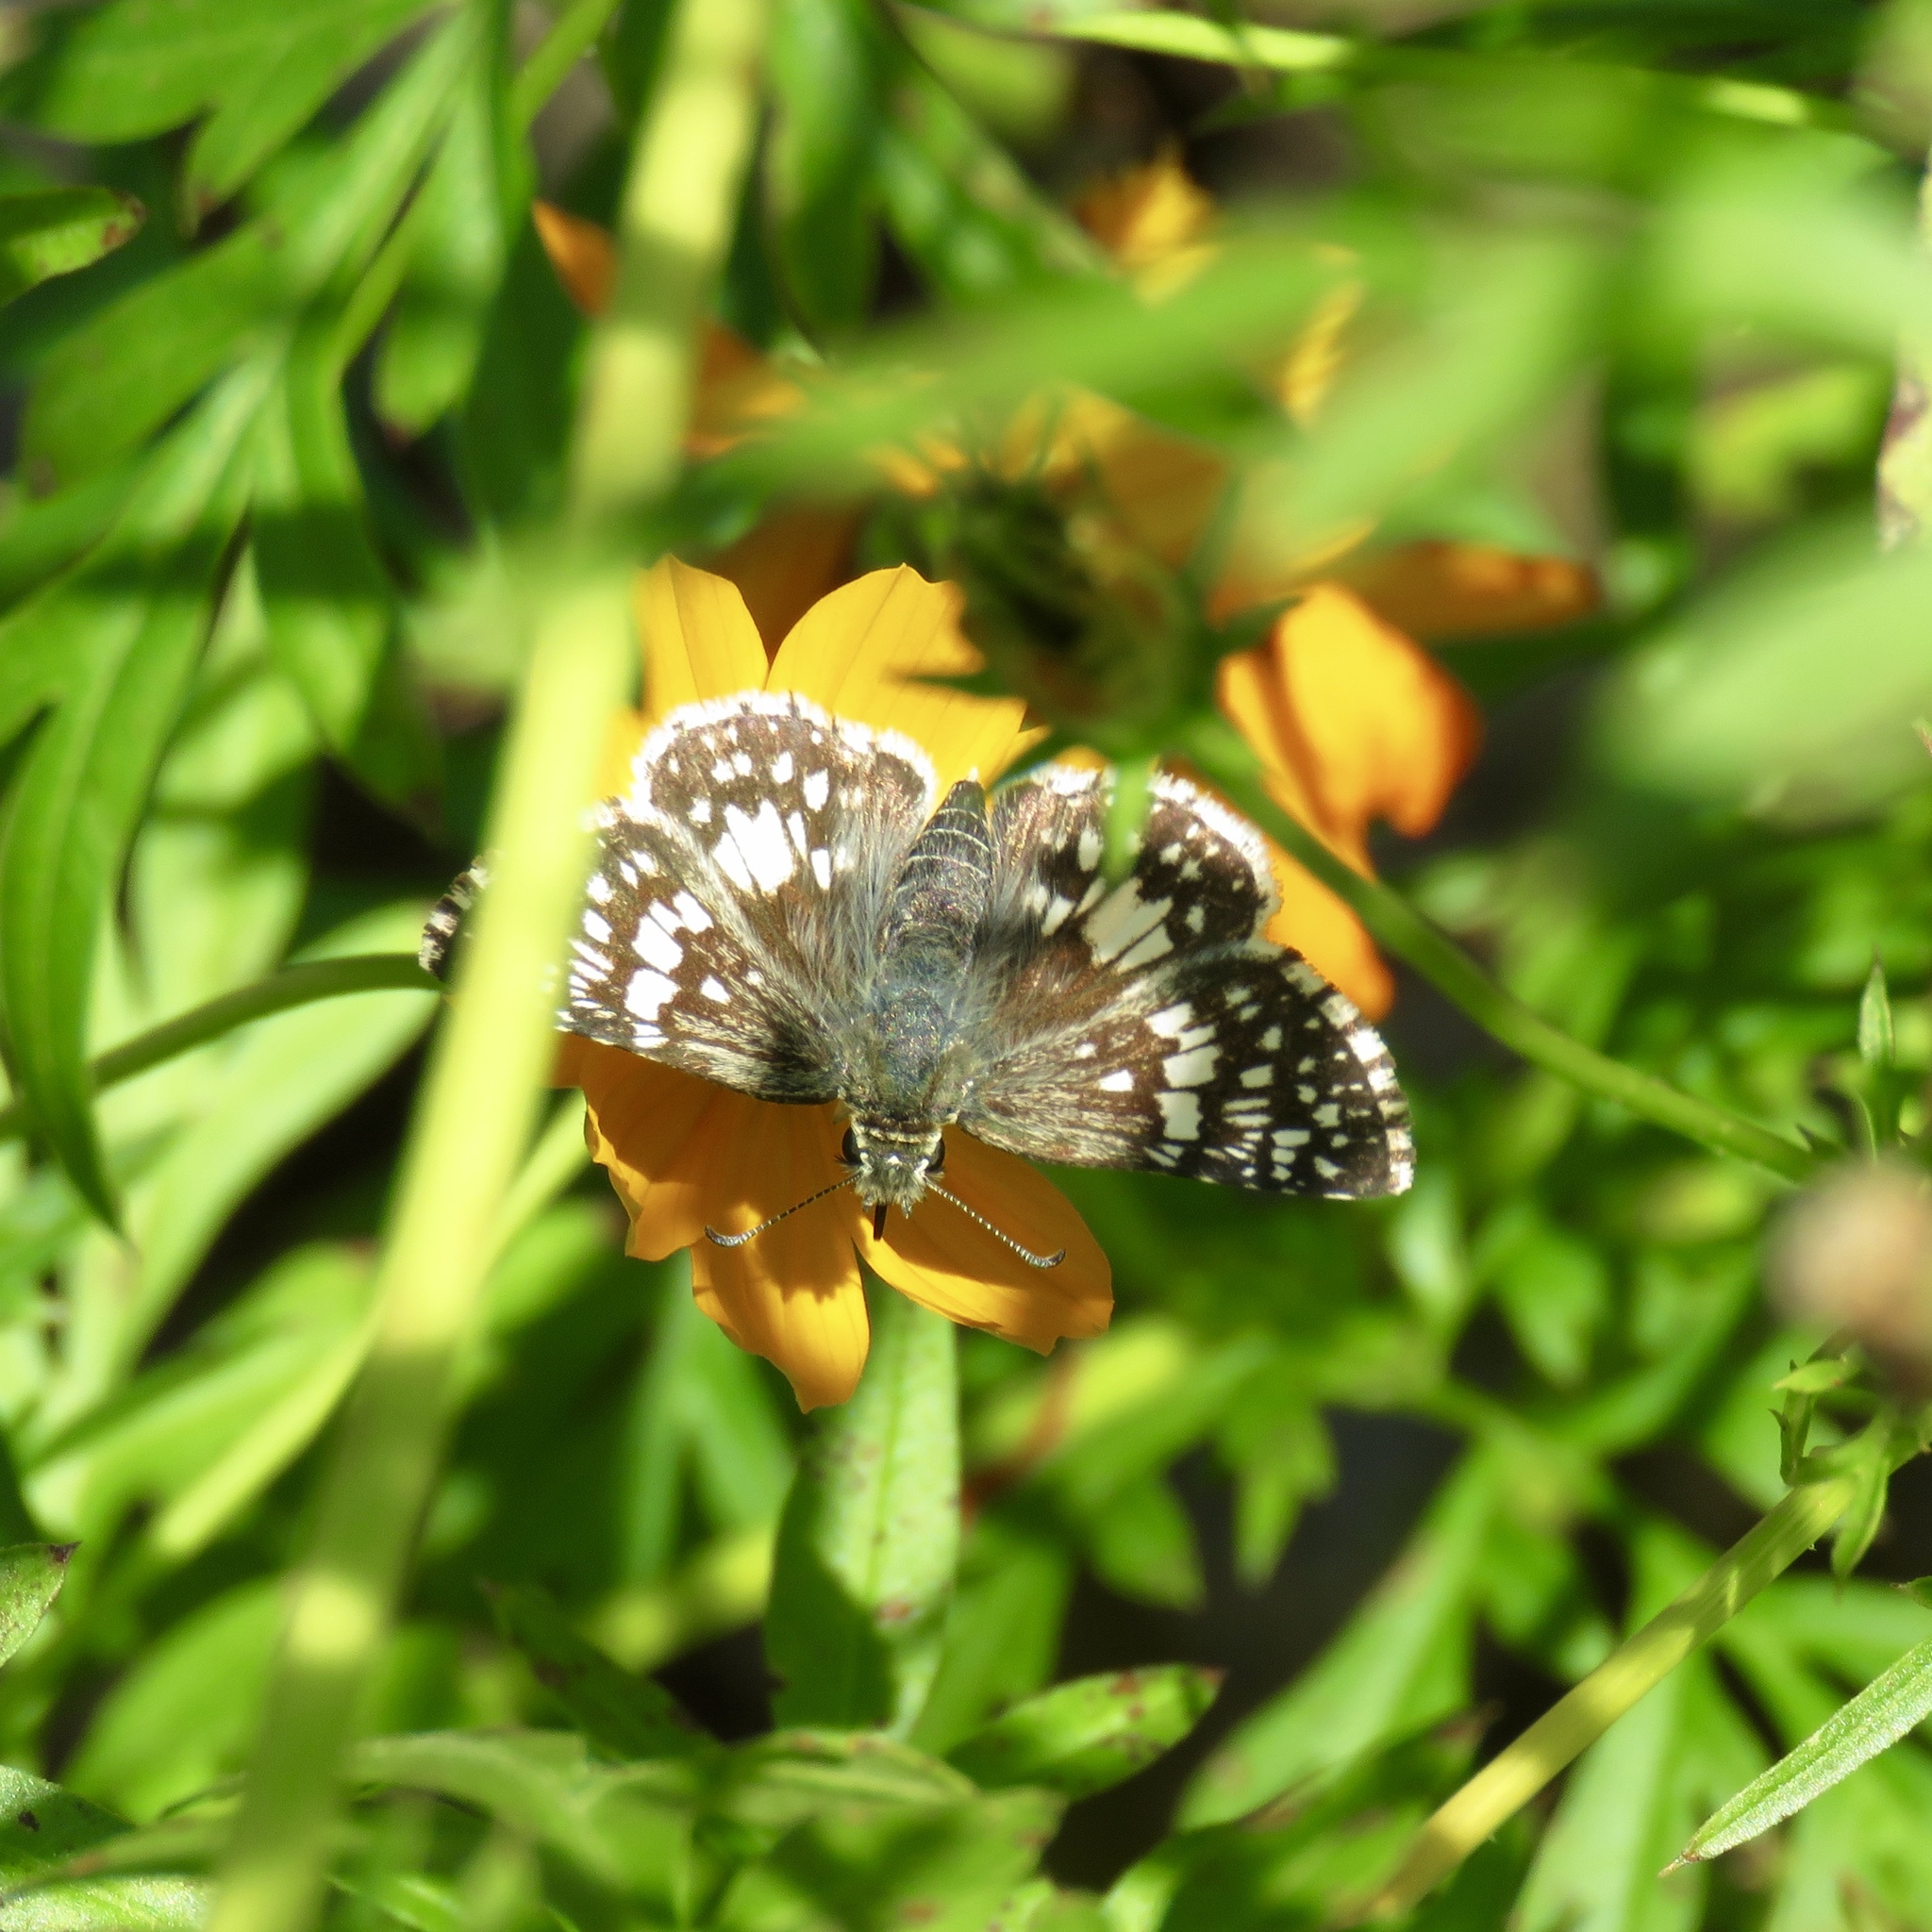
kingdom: Animalia
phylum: Arthropoda
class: Insecta
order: Lepidoptera
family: Hesperiidae
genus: Burnsius
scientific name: Burnsius
